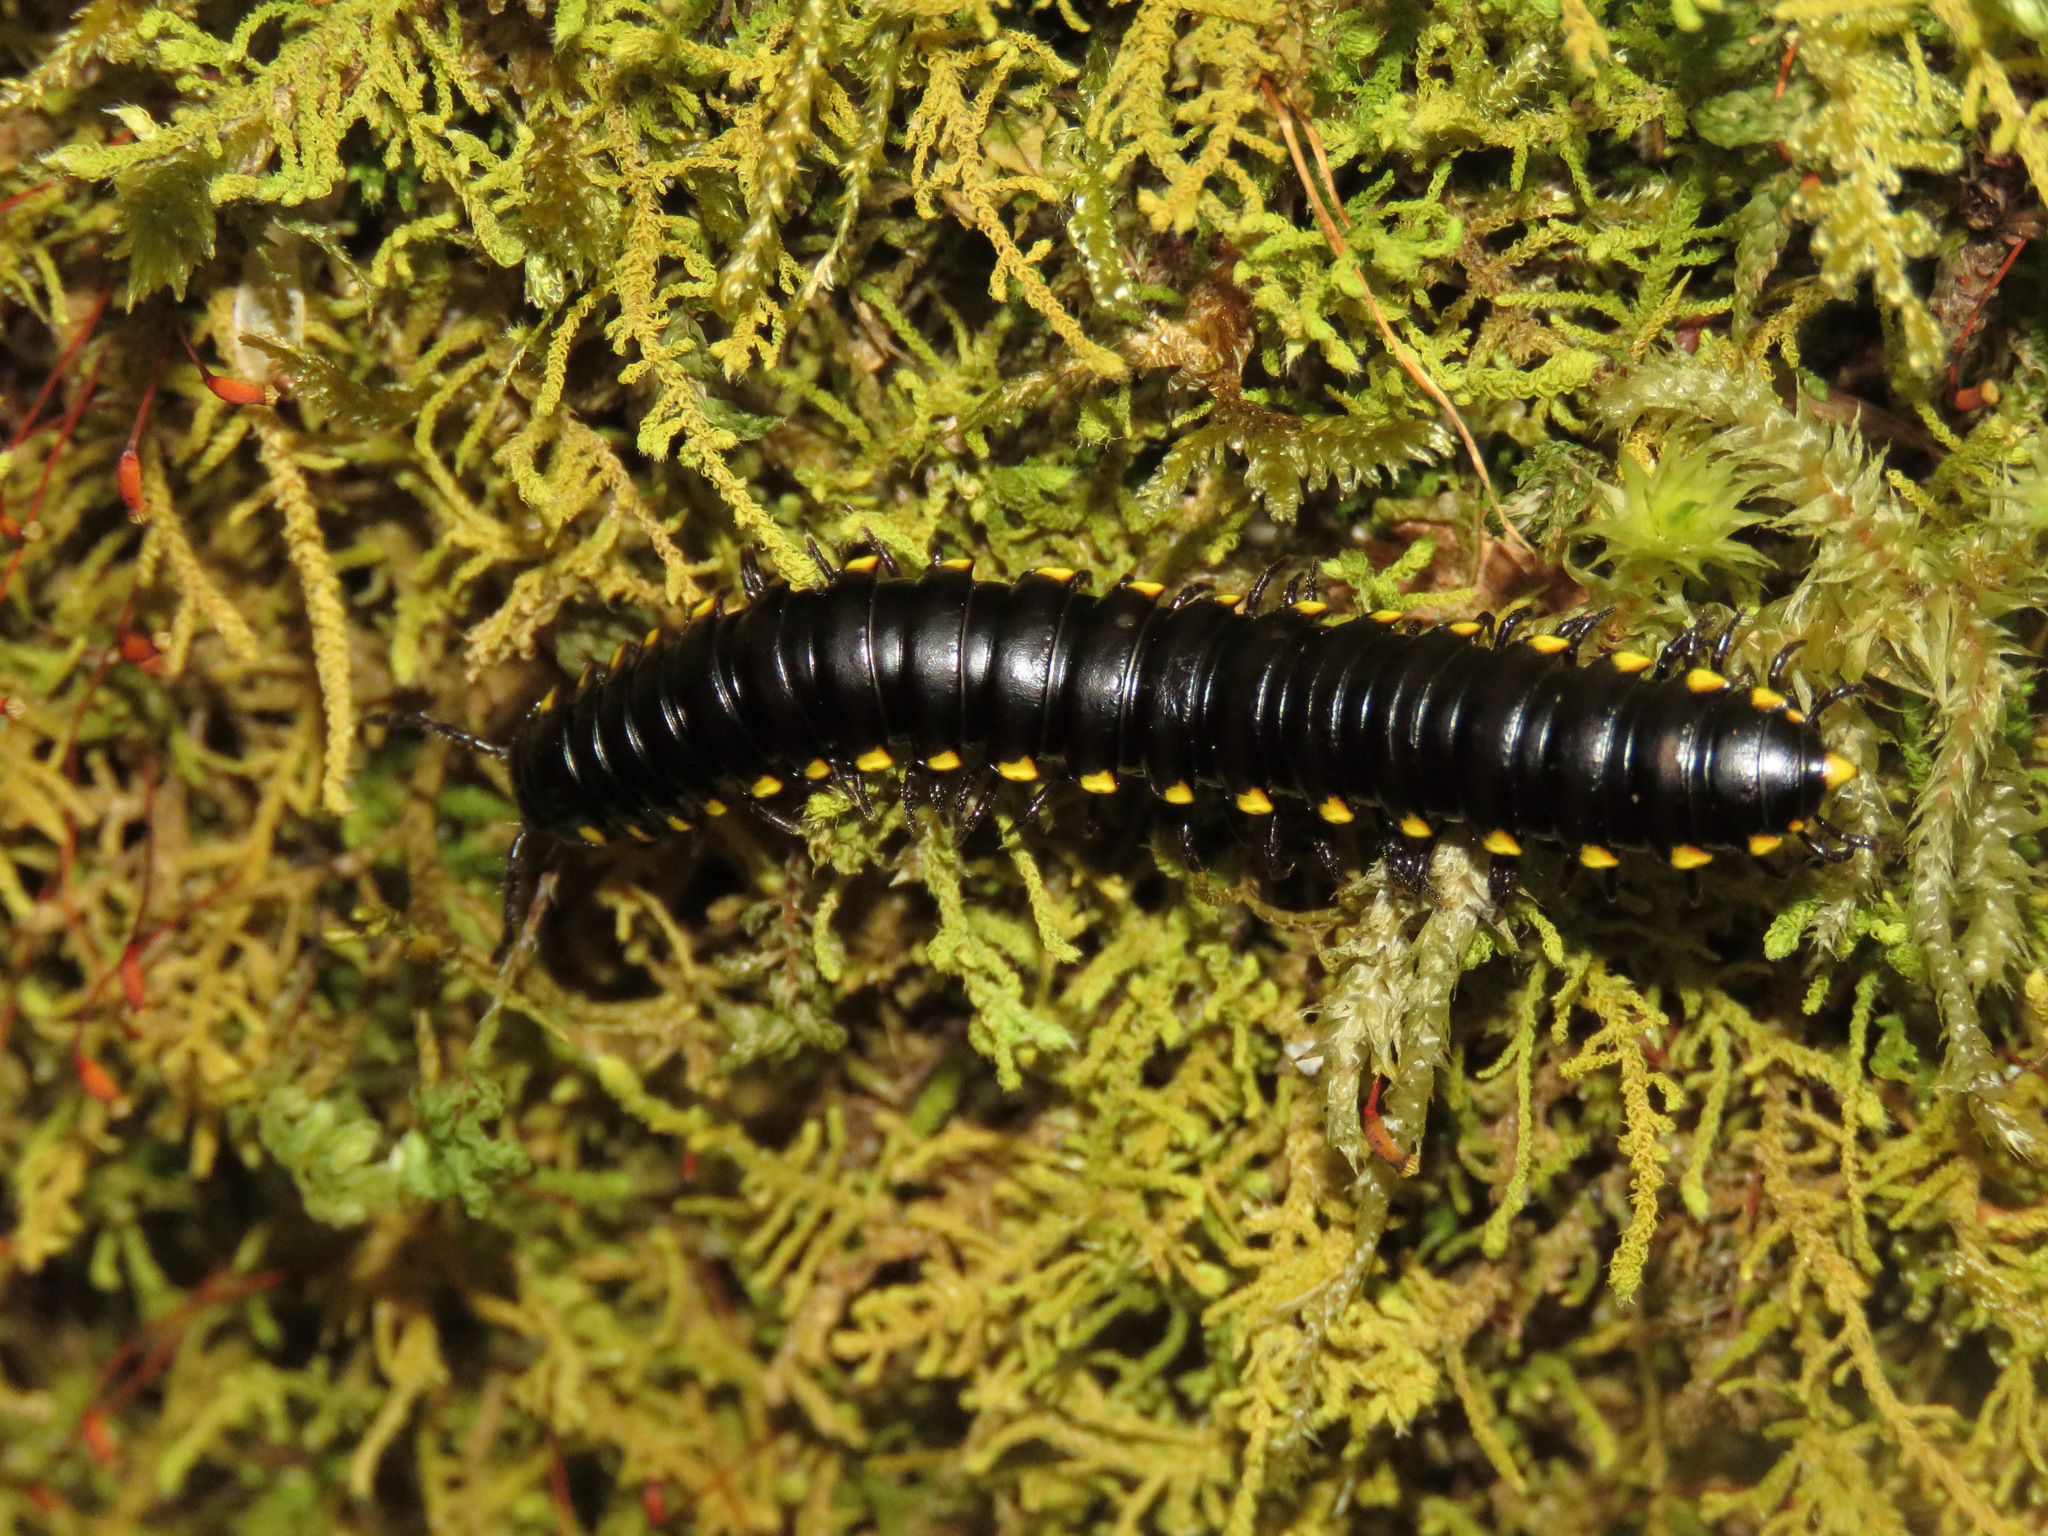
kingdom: Animalia
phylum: Arthropoda
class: Diplopoda
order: Polydesmida
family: Xystodesmidae
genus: Harpaphe
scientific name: Harpaphe haydeniana
